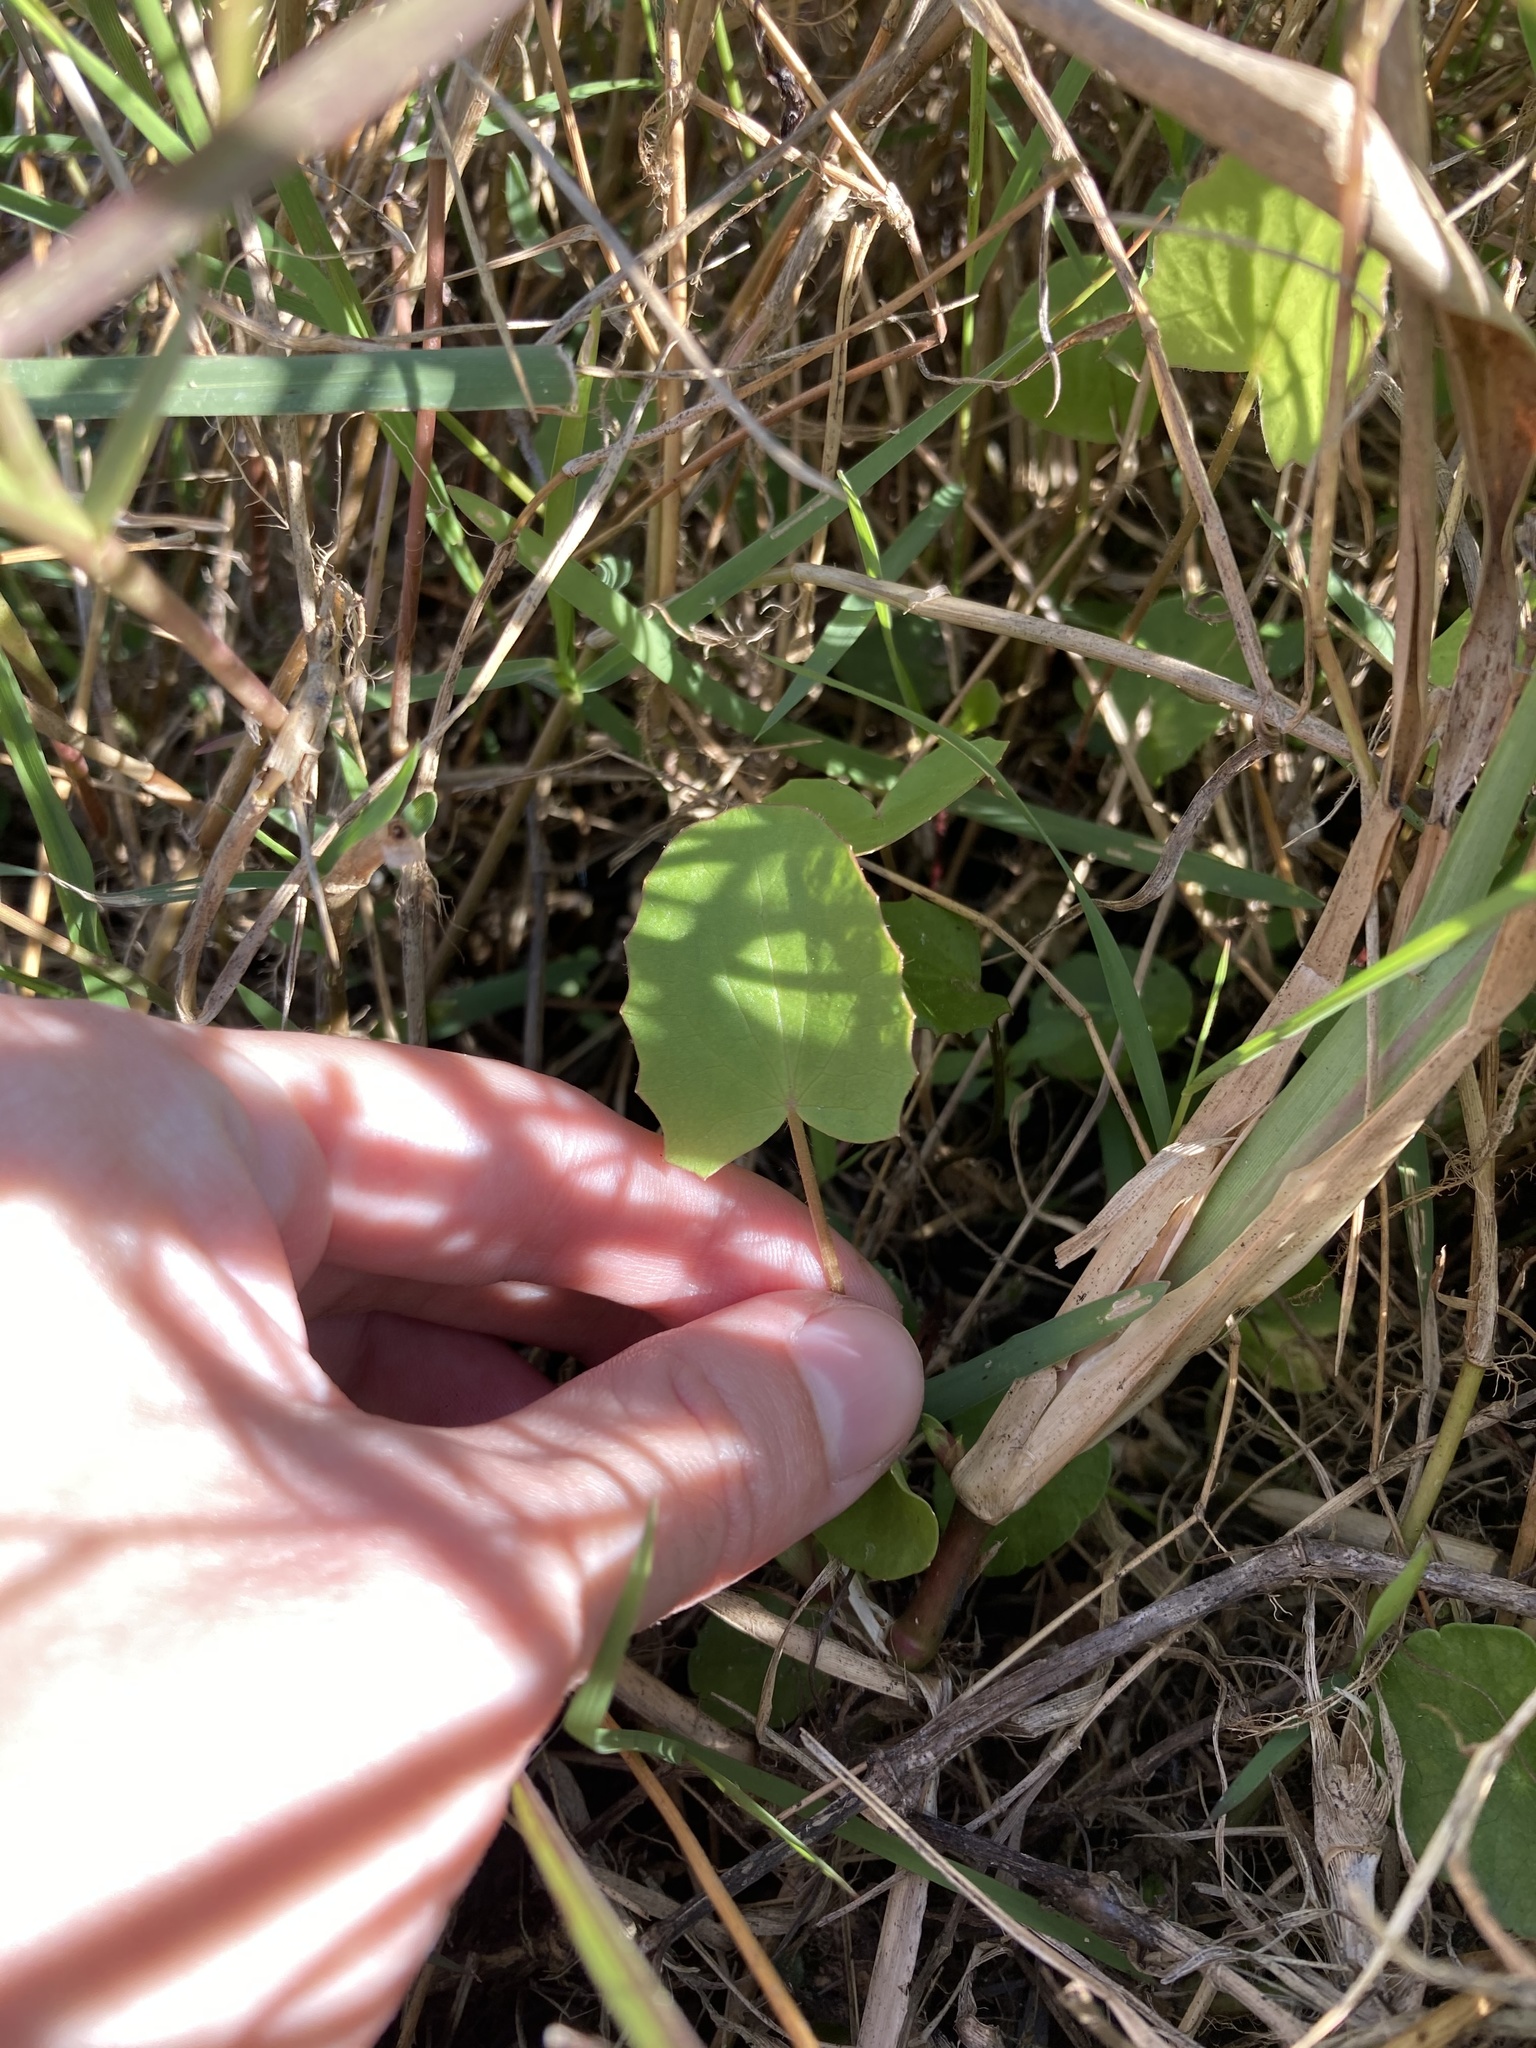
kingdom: Plantae
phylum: Tracheophyta
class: Magnoliopsida
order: Apiales
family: Apiaceae
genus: Centella
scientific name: Centella erecta
